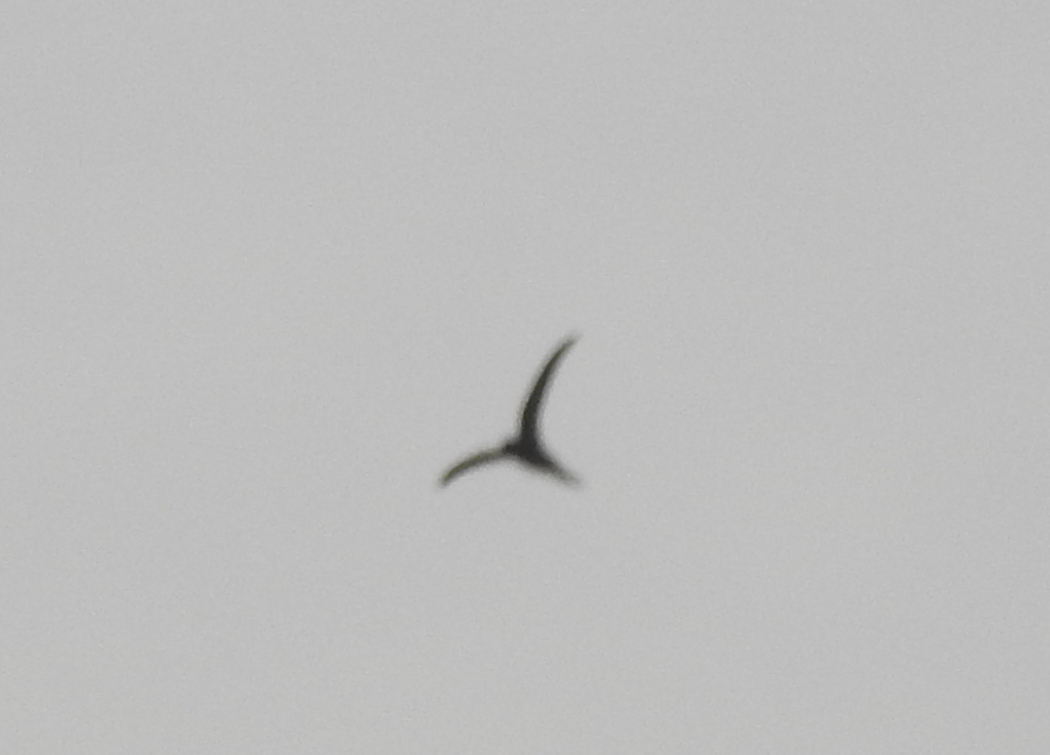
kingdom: Animalia
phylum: Chordata
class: Aves
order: Apodiformes
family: Apodidae
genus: Cypsiurus
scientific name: Cypsiurus balasiensis
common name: Asian palm swift
